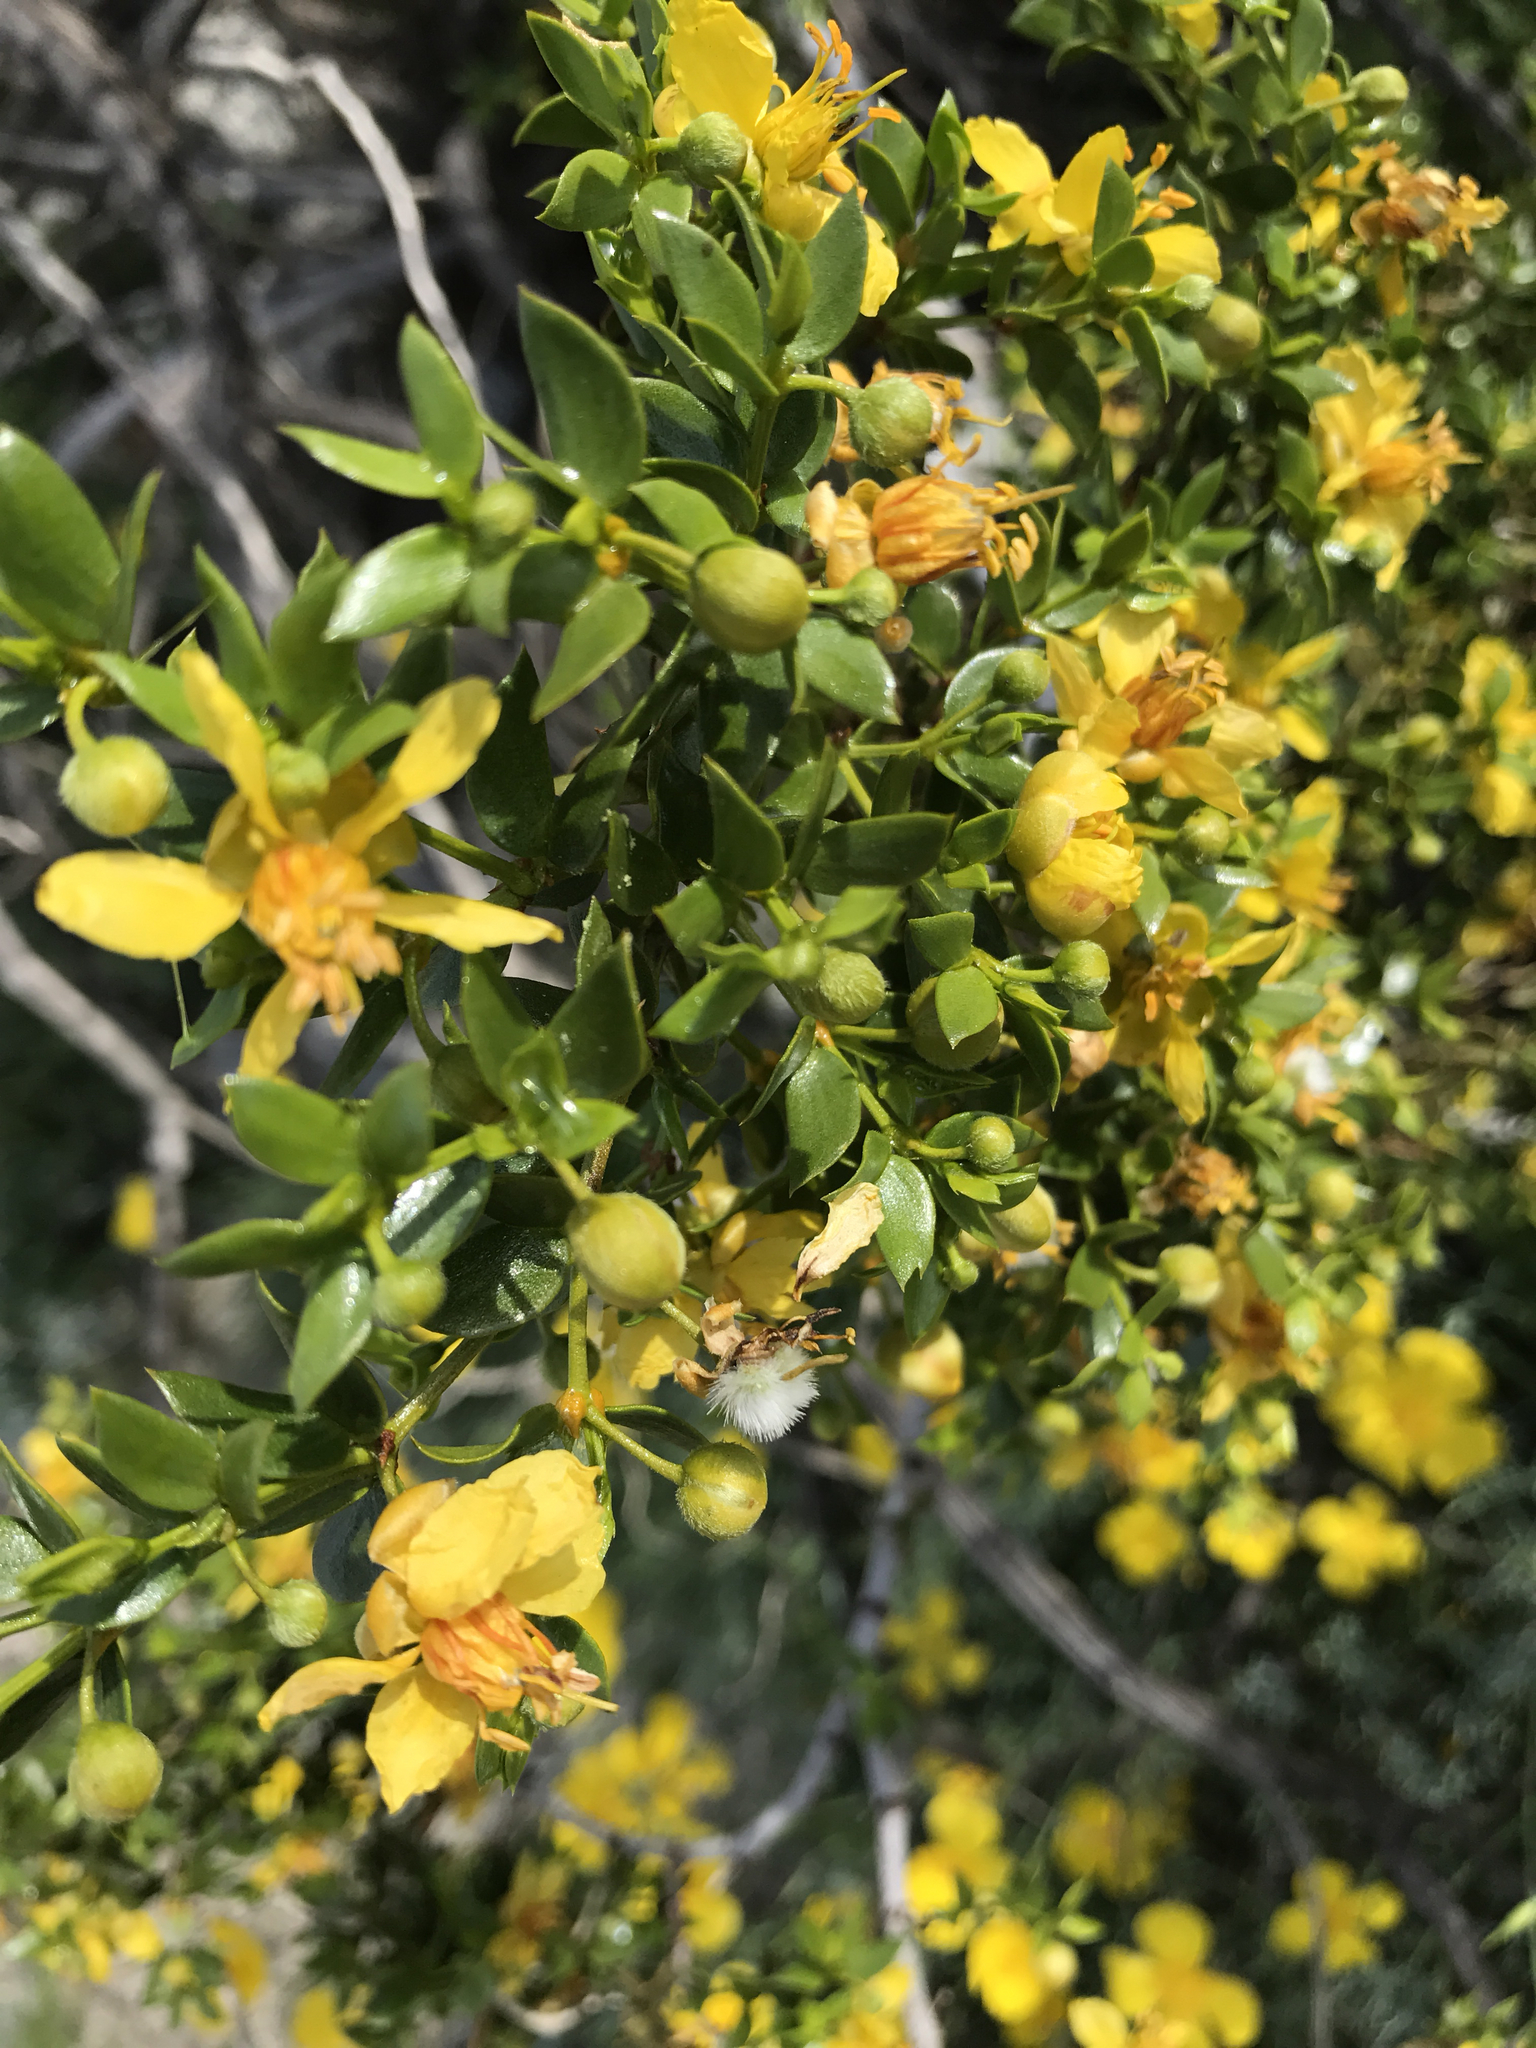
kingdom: Plantae
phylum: Tracheophyta
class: Magnoliopsida
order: Zygophyllales
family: Zygophyllaceae
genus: Larrea
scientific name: Larrea tridentata
